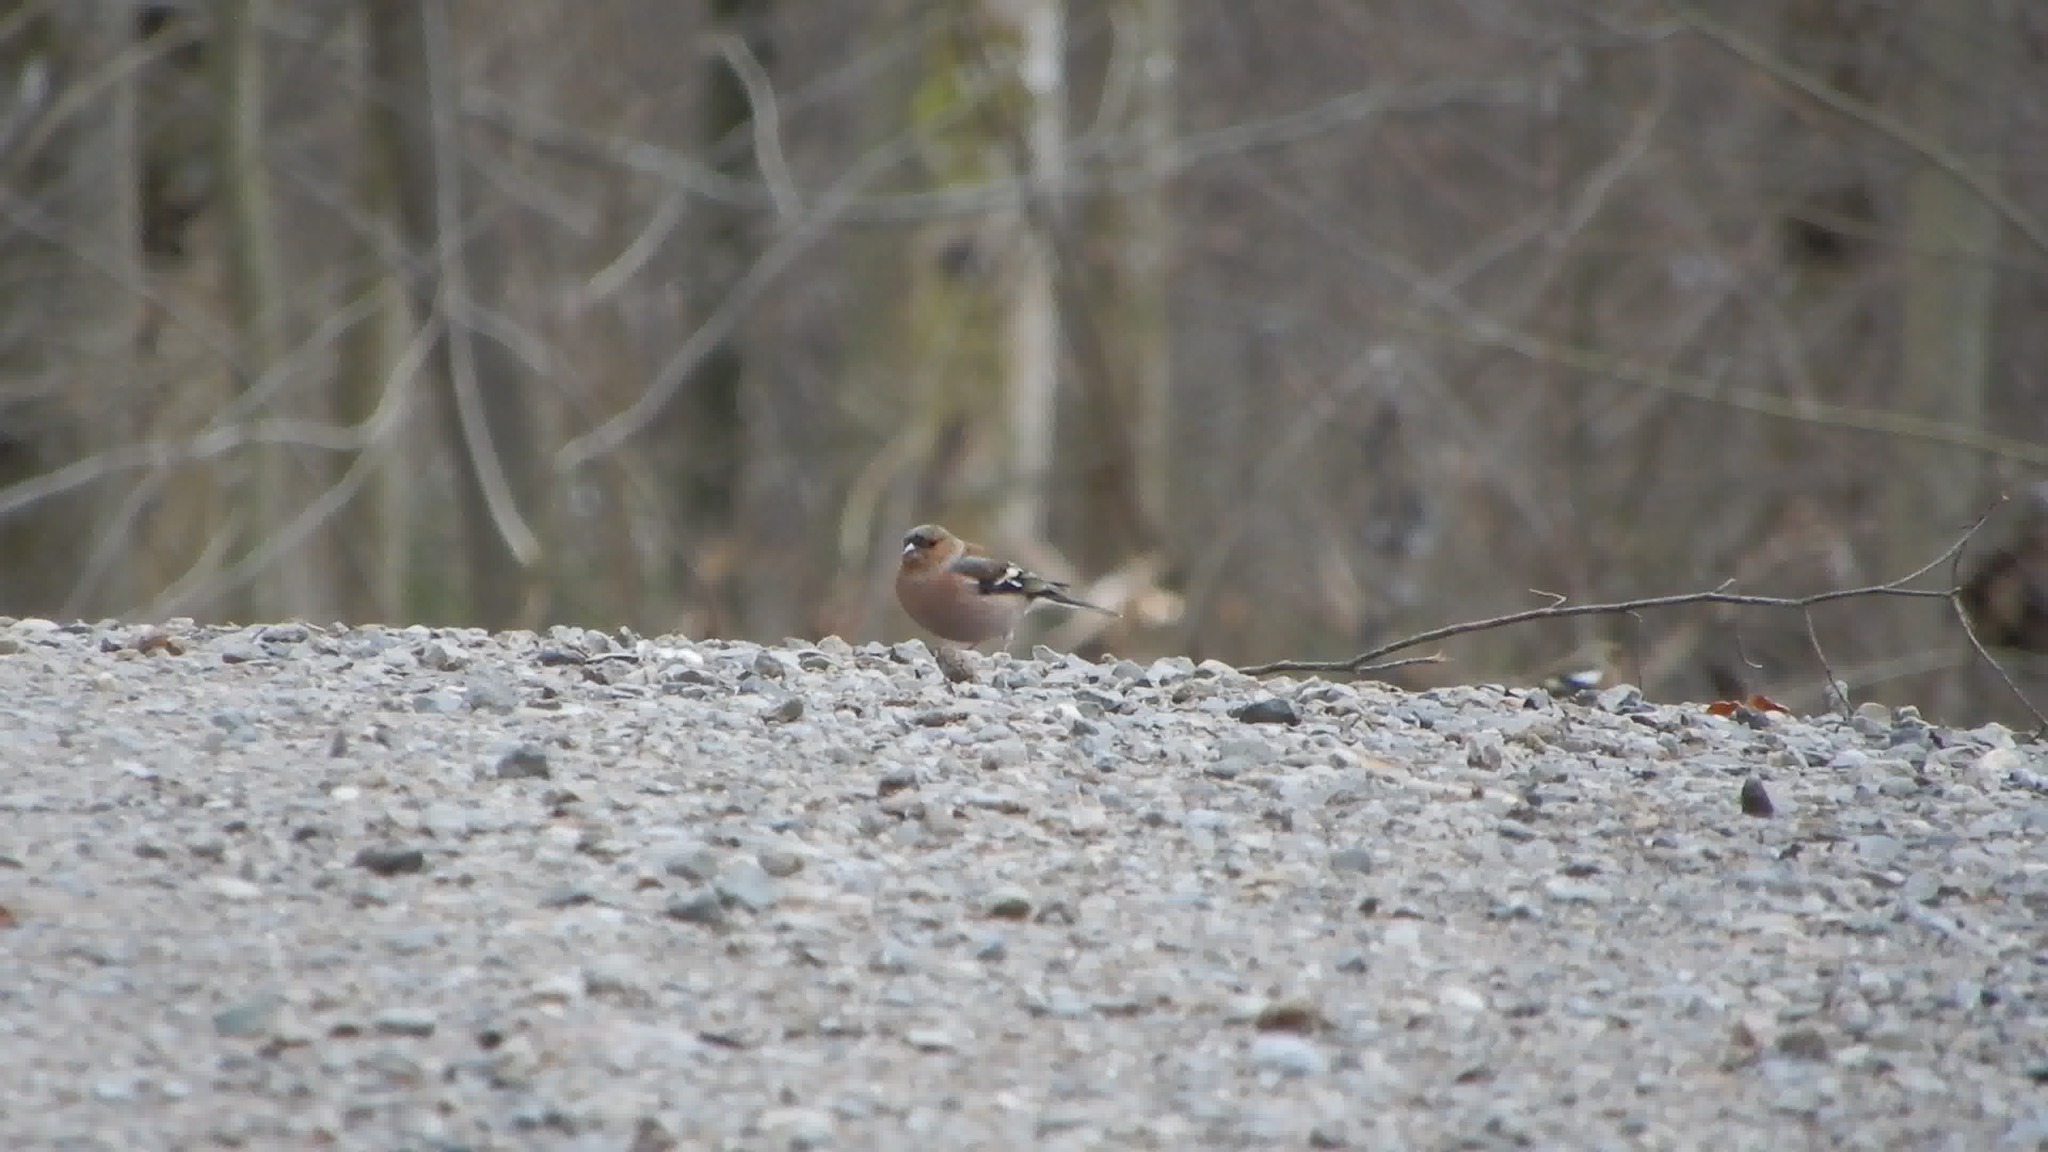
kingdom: Animalia
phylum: Chordata
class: Aves
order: Passeriformes
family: Fringillidae
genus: Fringilla
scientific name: Fringilla coelebs
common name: Common chaffinch
